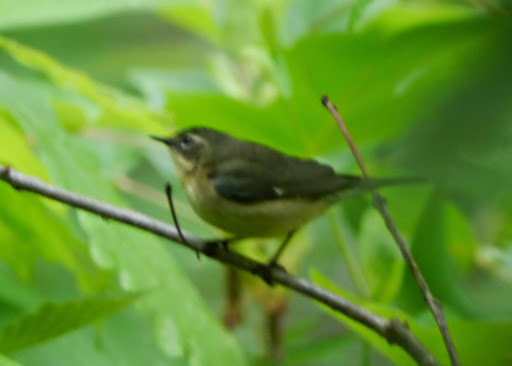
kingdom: Animalia
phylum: Chordata
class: Aves
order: Passeriformes
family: Parulidae
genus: Setophaga
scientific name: Setophaga caerulescens
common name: Black-throated blue warbler
